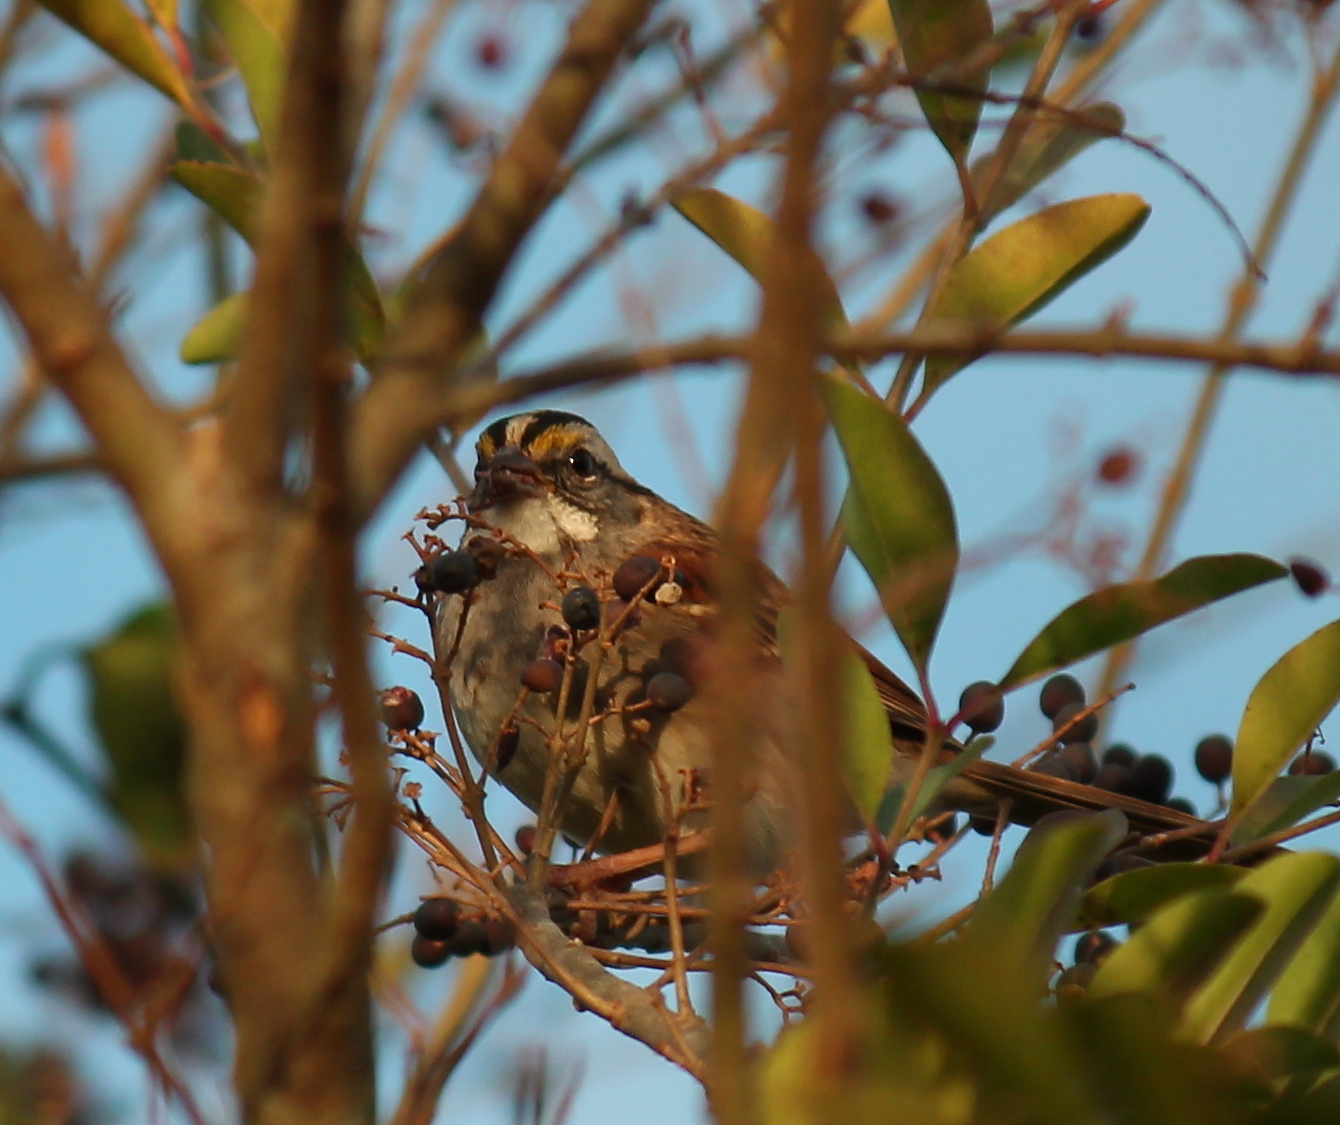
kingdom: Animalia
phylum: Chordata
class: Aves
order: Passeriformes
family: Passerellidae
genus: Zonotrichia
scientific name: Zonotrichia albicollis
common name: White-throated sparrow
